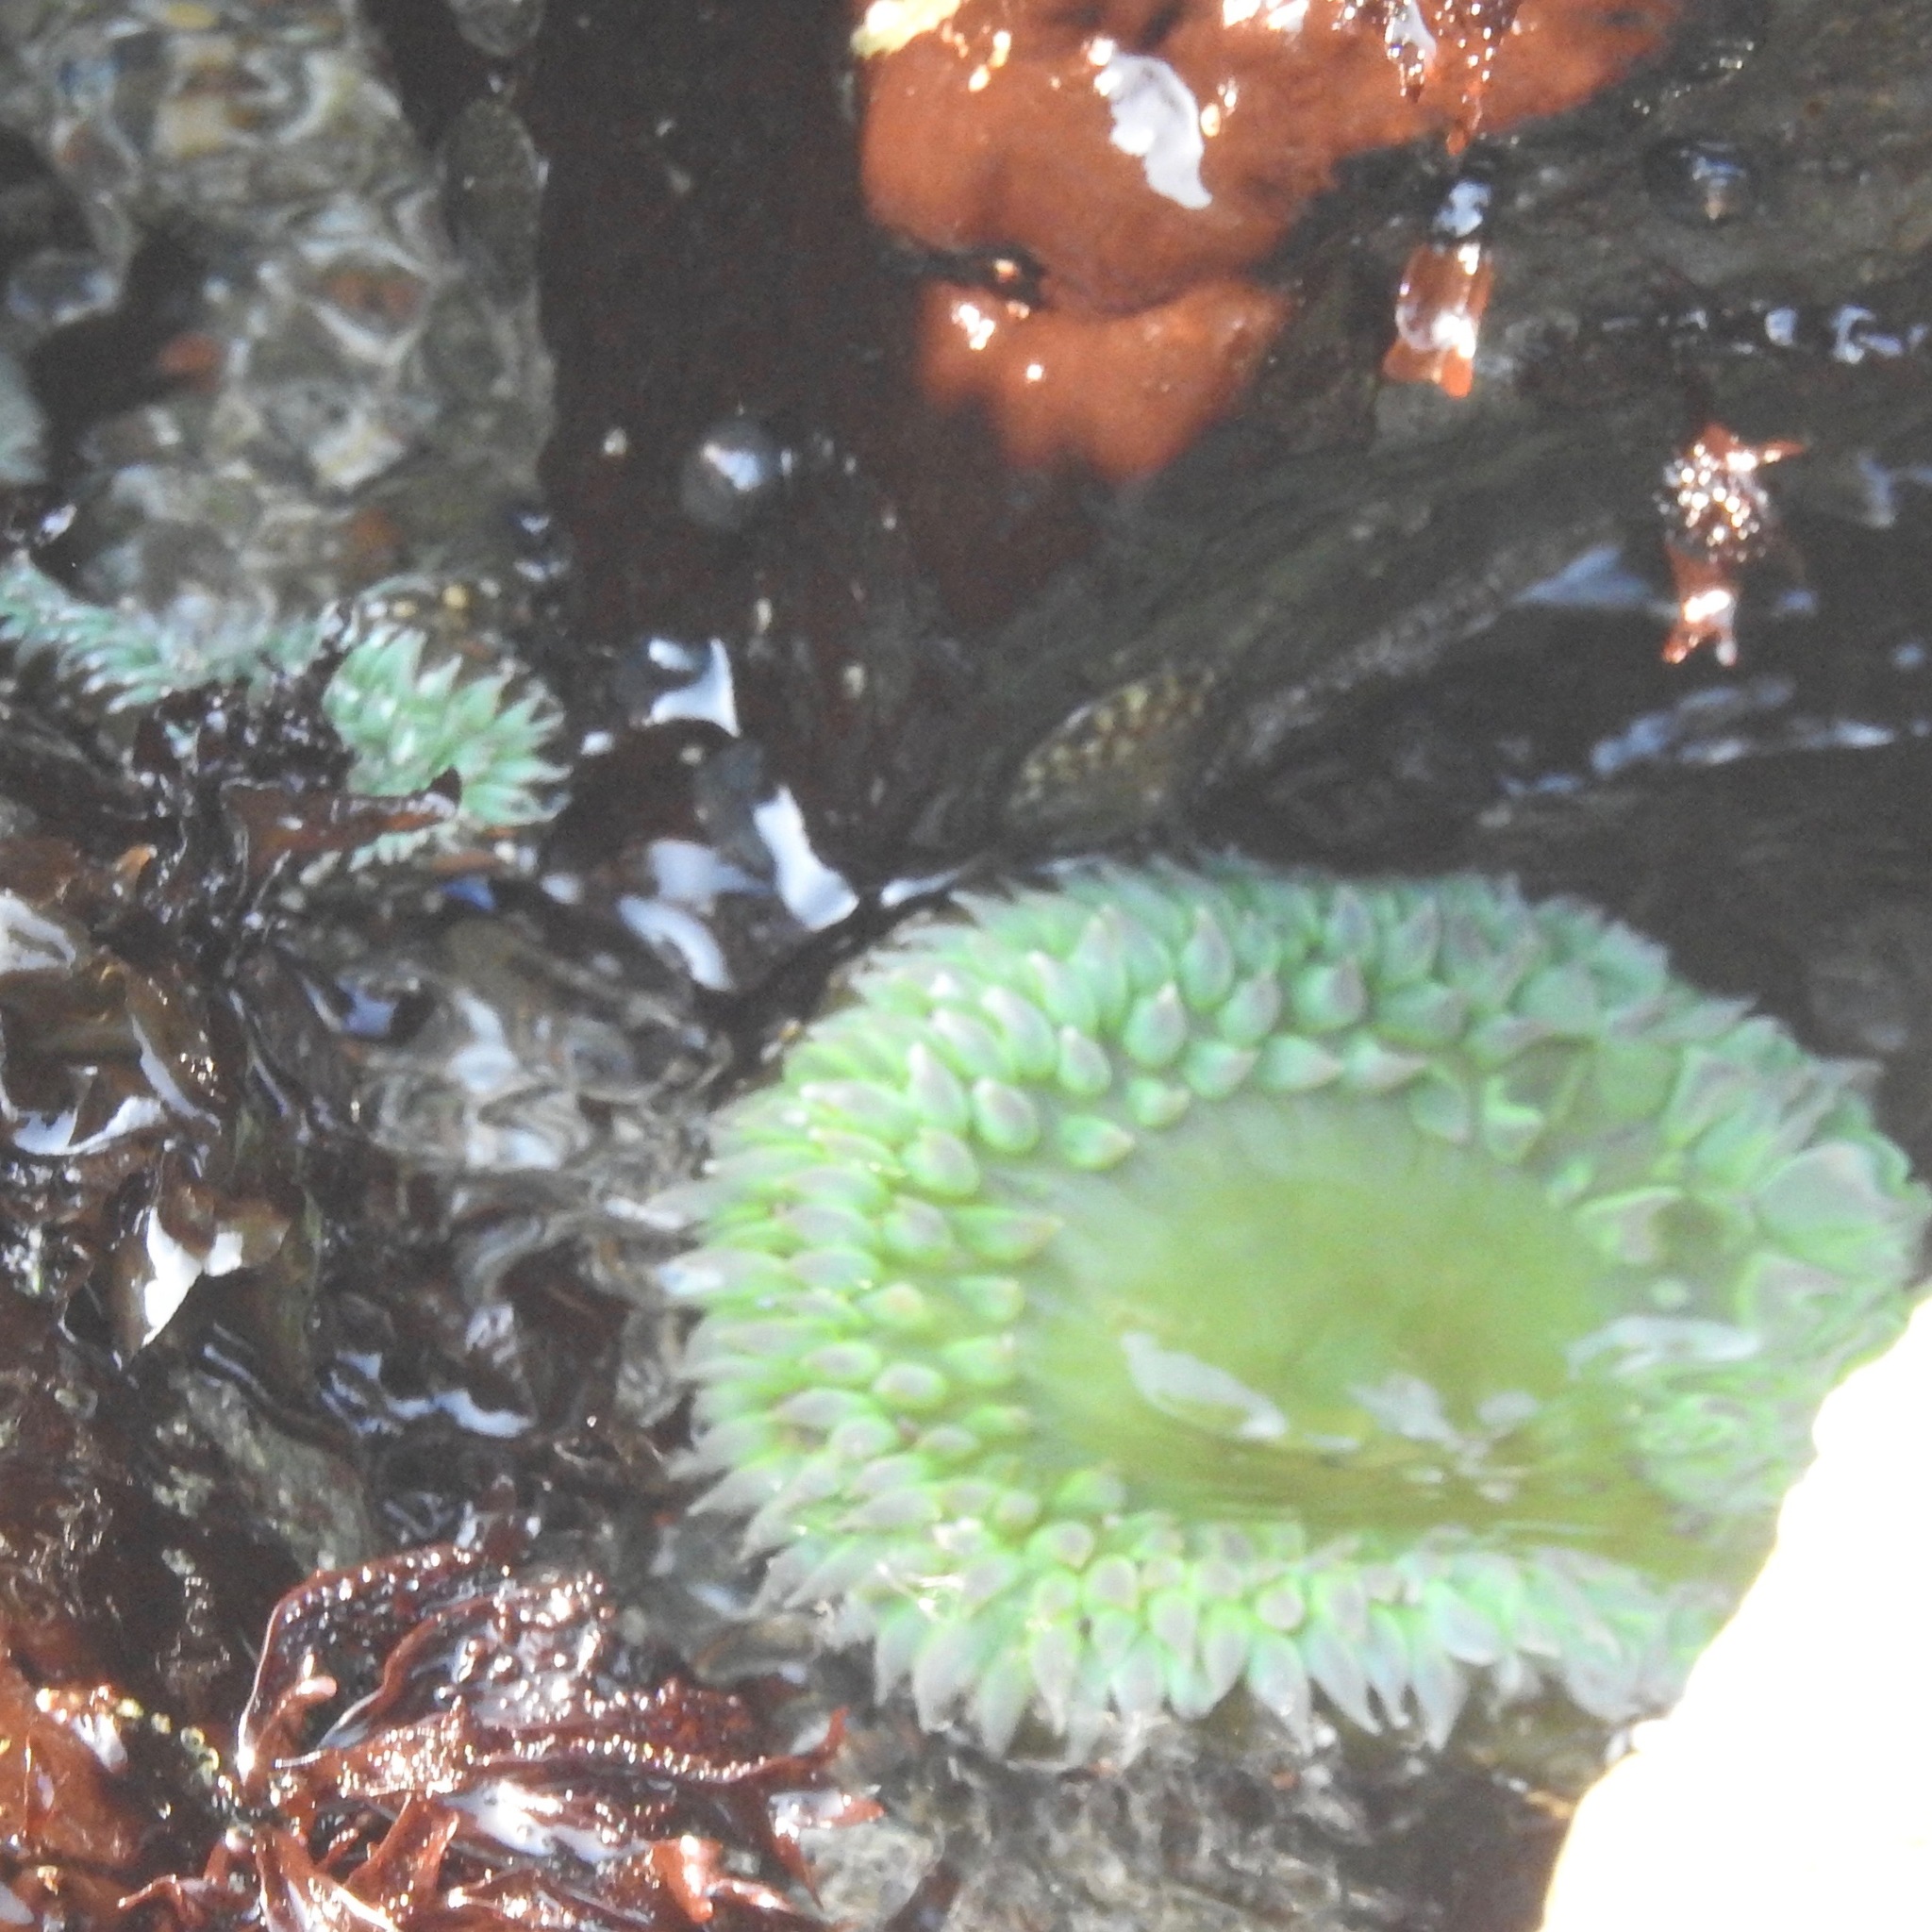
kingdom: Animalia
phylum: Cnidaria
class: Anthozoa
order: Actiniaria
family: Actiniidae
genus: Anthopleura
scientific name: Anthopleura xanthogrammica
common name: Giant green anemone
